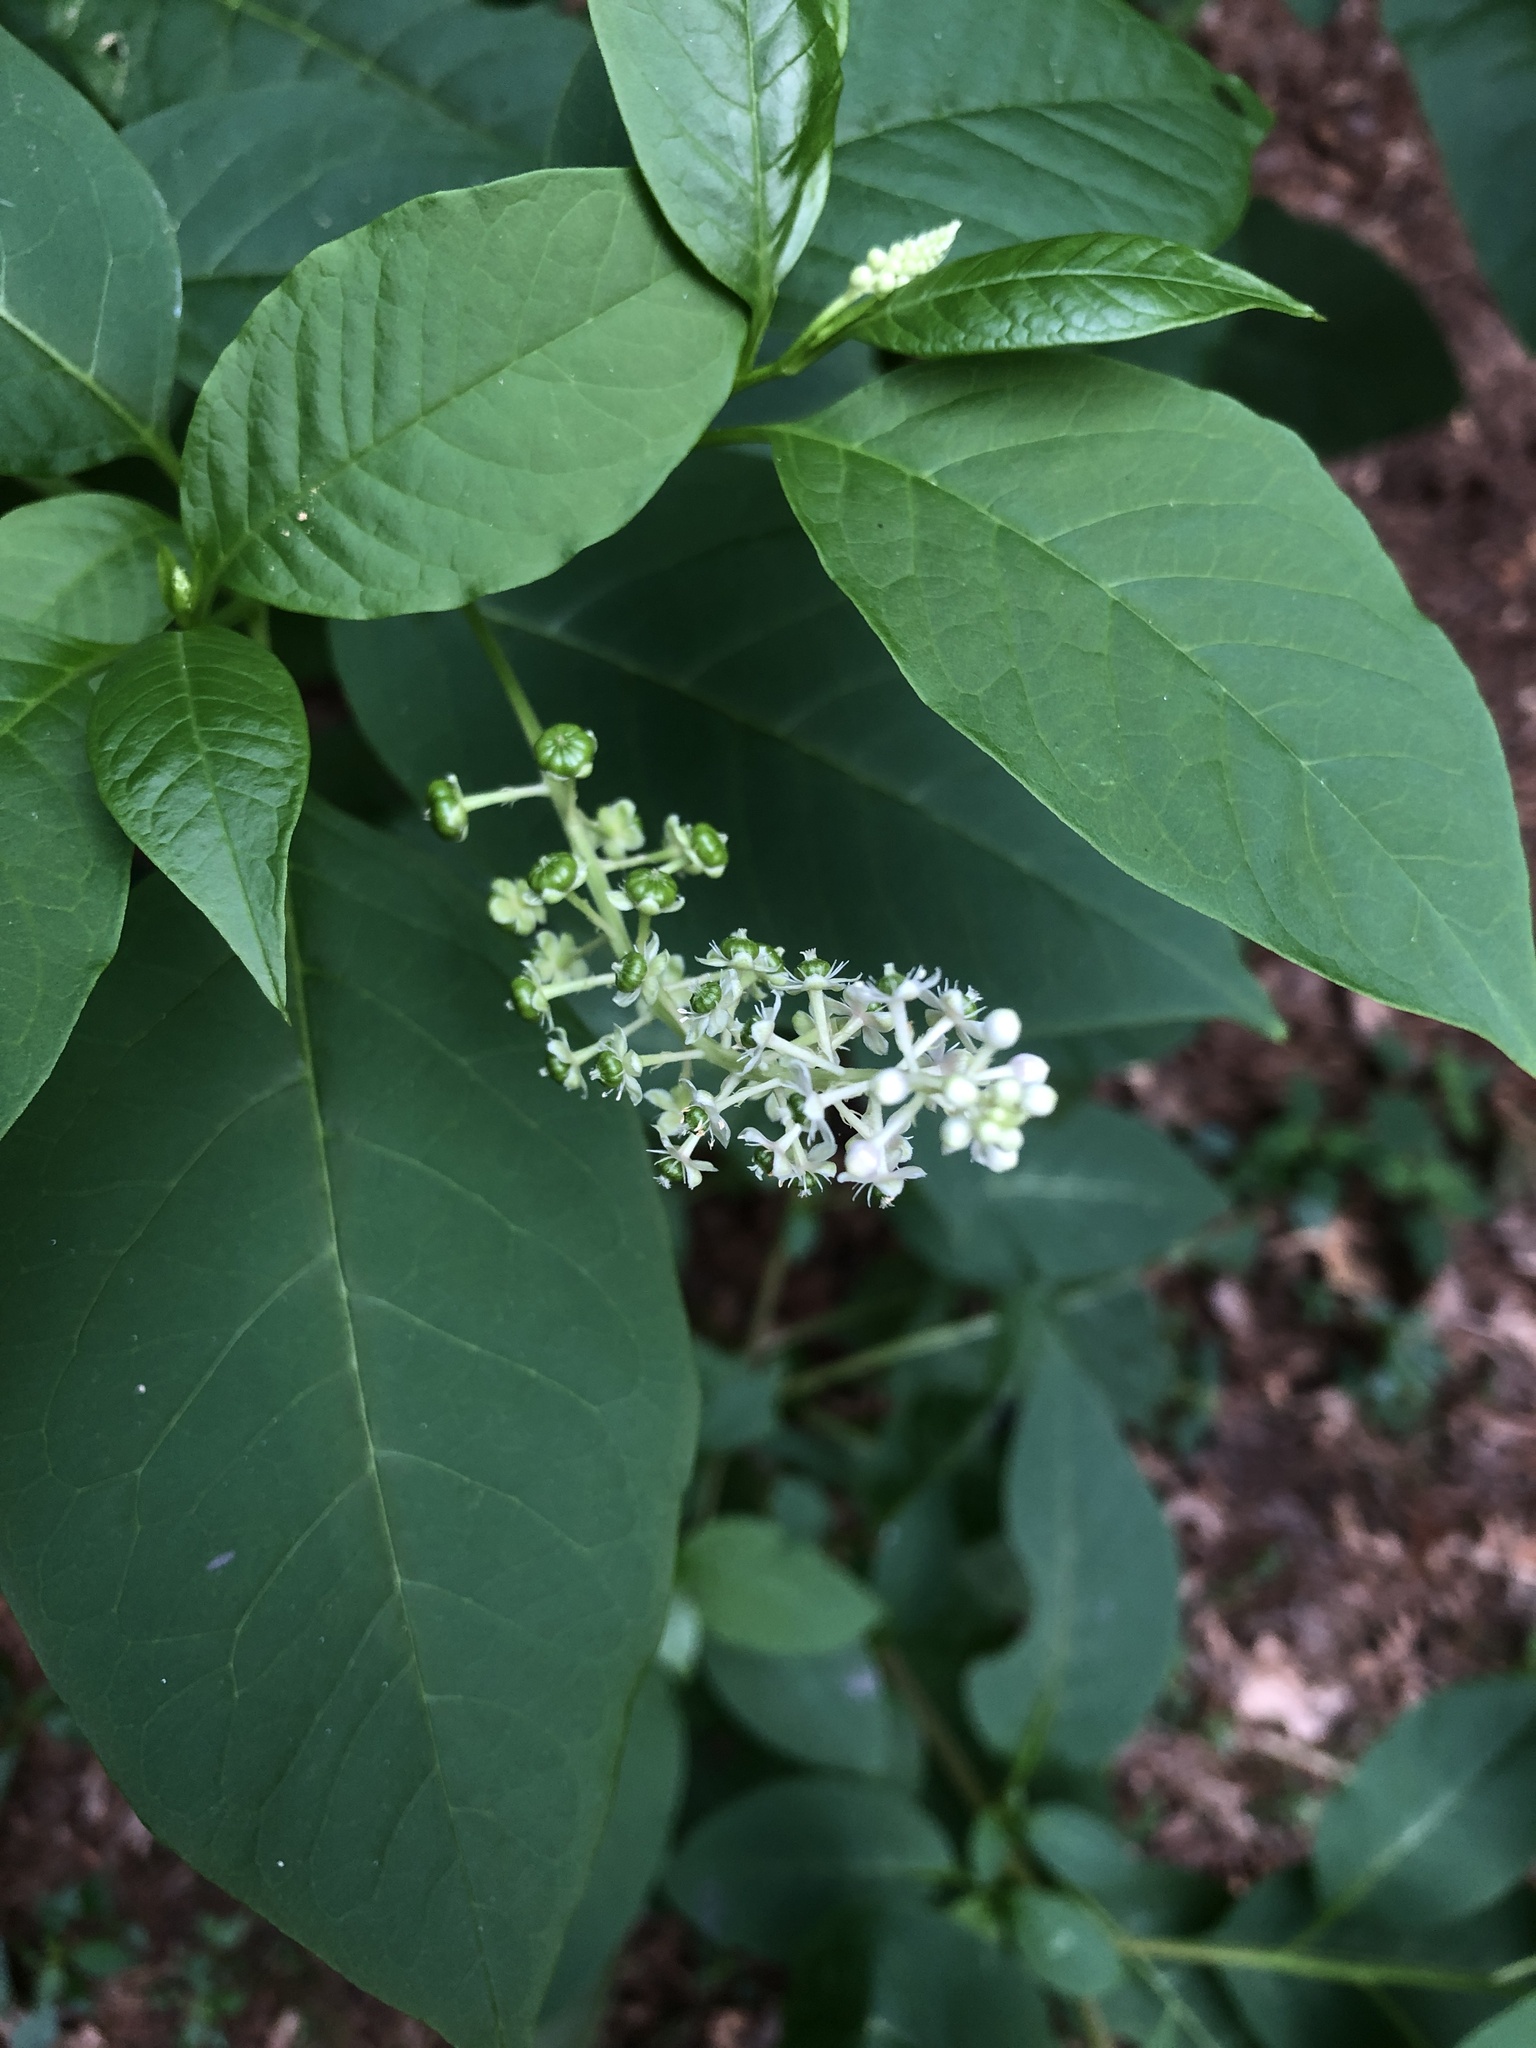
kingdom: Plantae
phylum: Tracheophyta
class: Magnoliopsida
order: Caryophyllales
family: Phytolaccaceae
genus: Phytolacca
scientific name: Phytolacca americana
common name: American pokeweed
